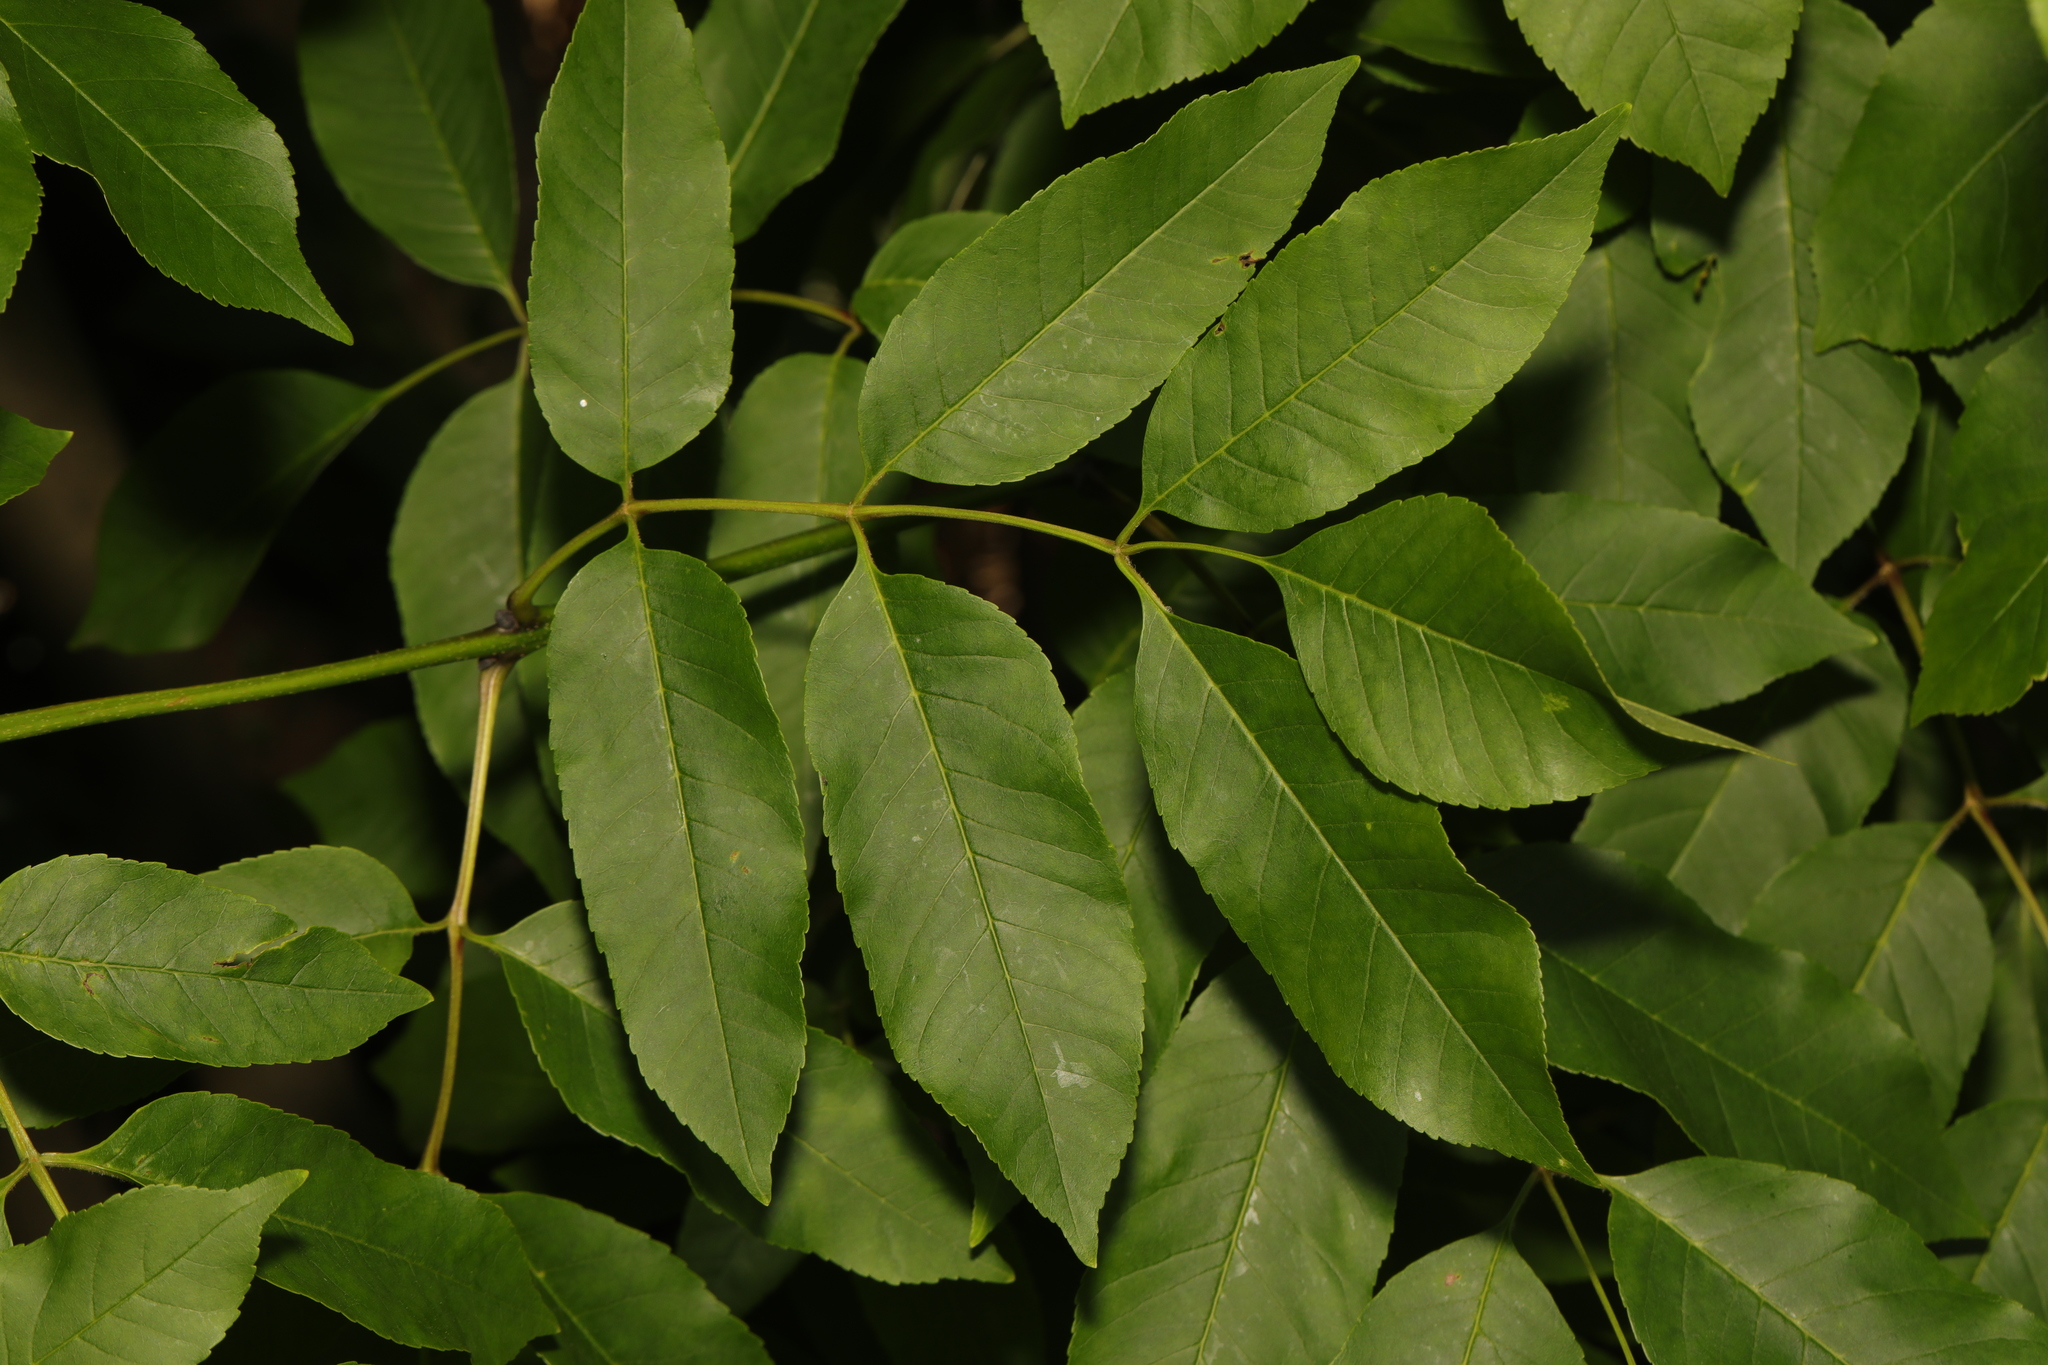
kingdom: Plantae
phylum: Tracheophyta
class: Magnoliopsida
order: Lamiales
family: Oleaceae
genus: Fraxinus
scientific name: Fraxinus excelsior
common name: European ash
